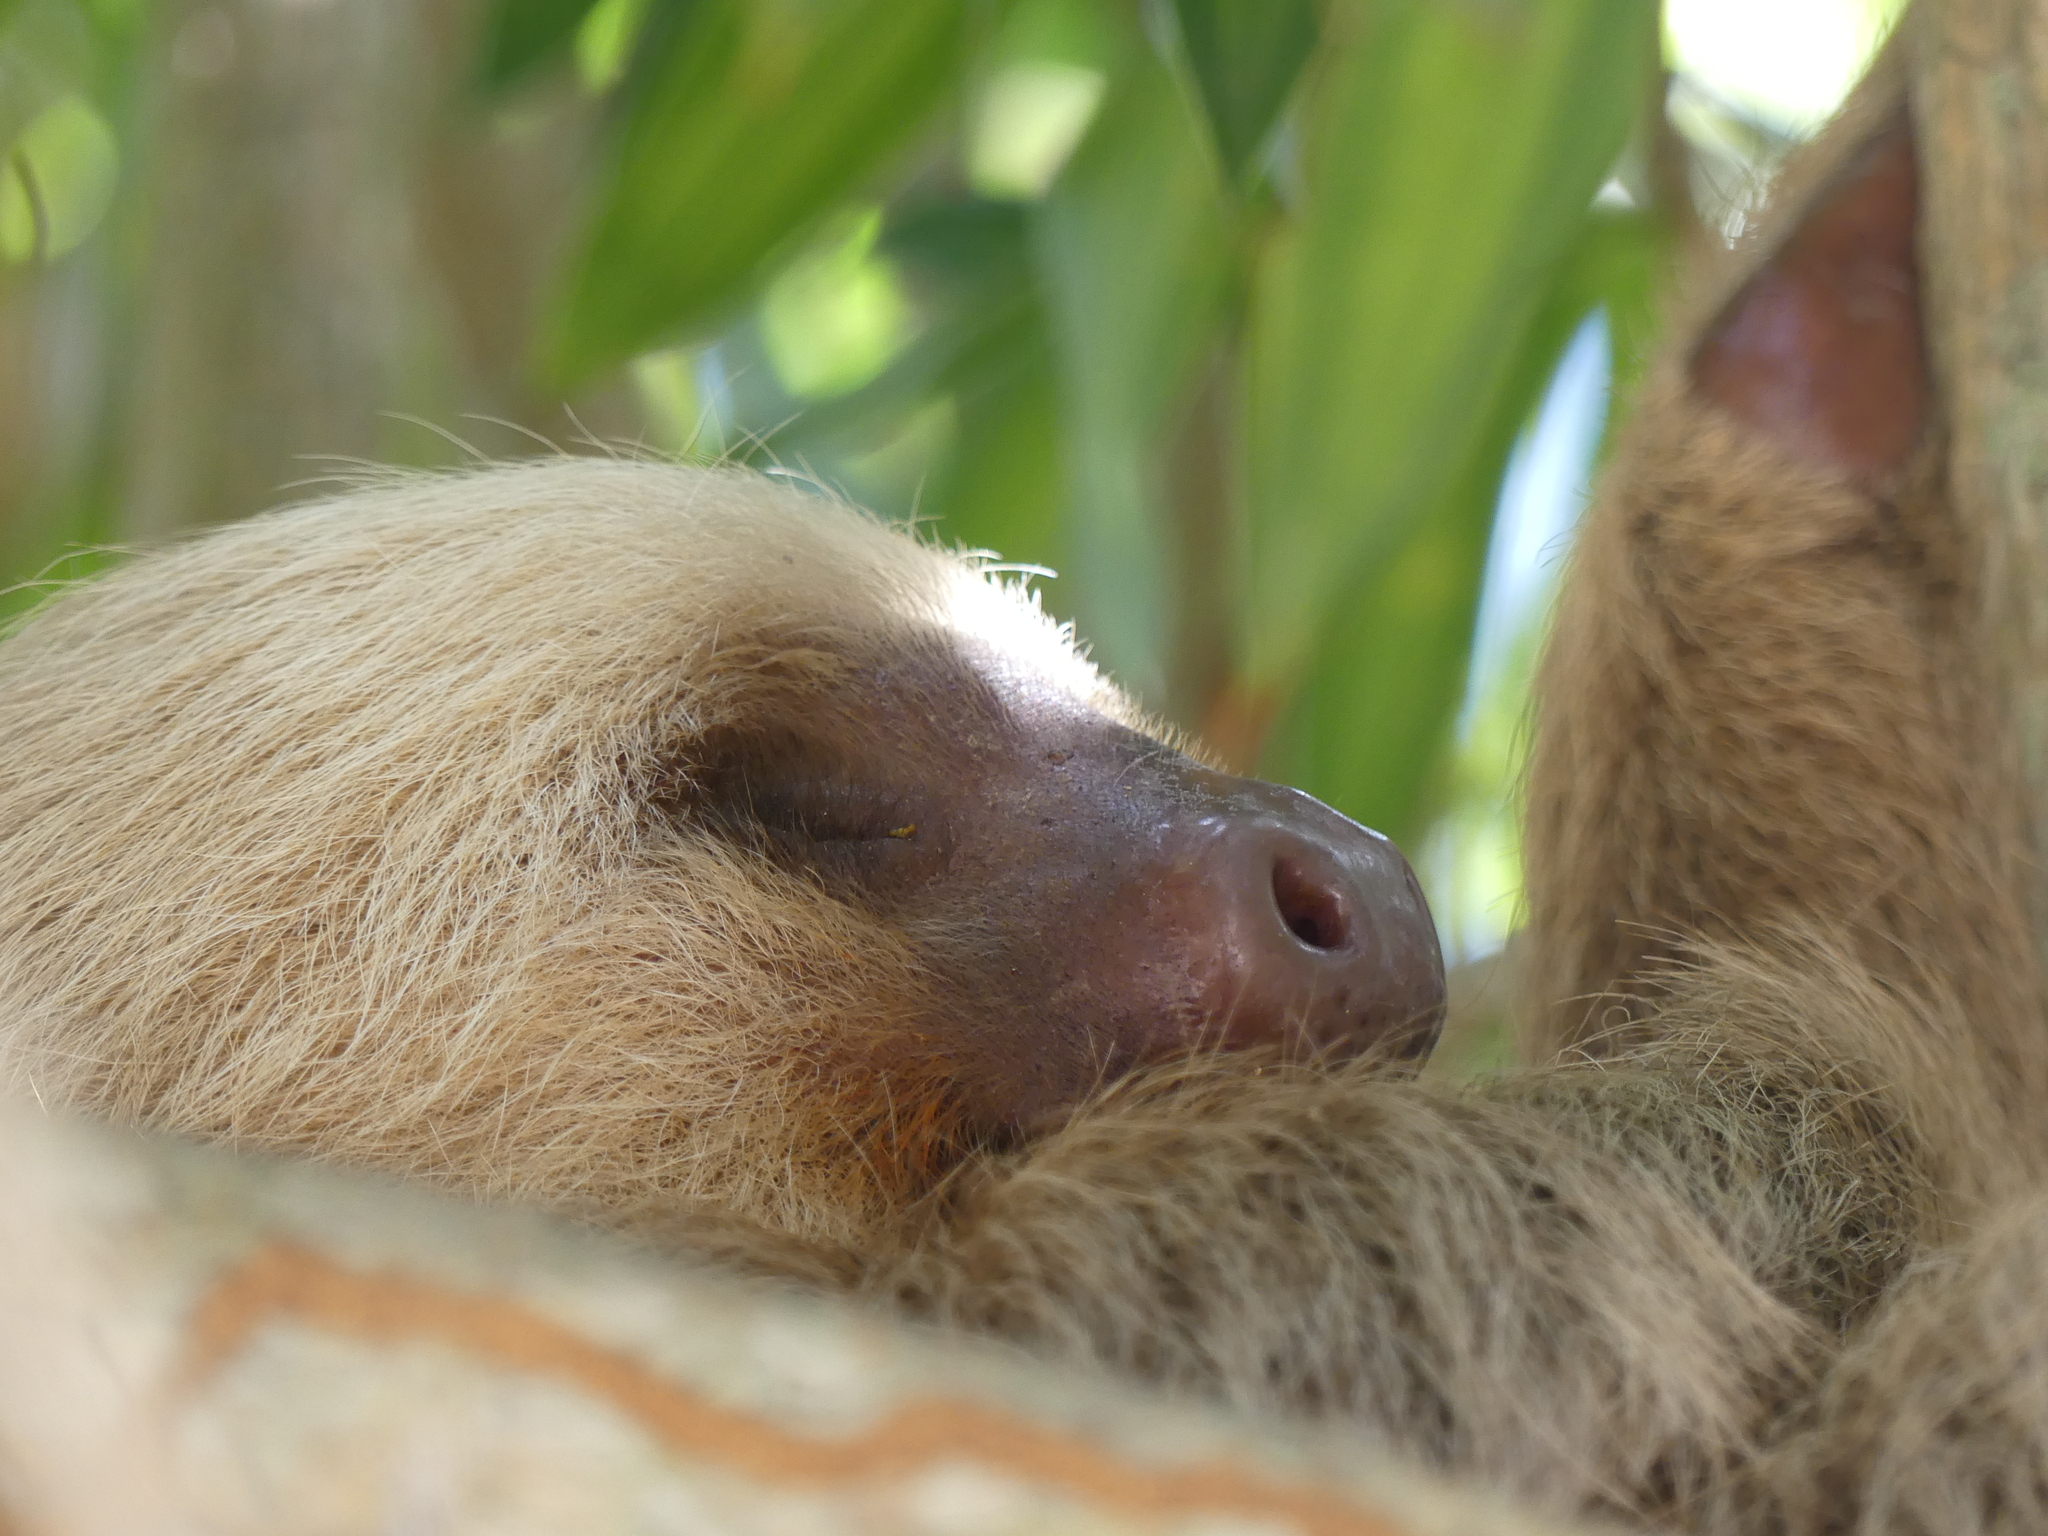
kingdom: Animalia
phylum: Chordata
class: Mammalia
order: Pilosa
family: Megalonychidae
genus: Choloepus
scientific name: Choloepus hoffmanni
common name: Hoffmann's two-toed sloth
